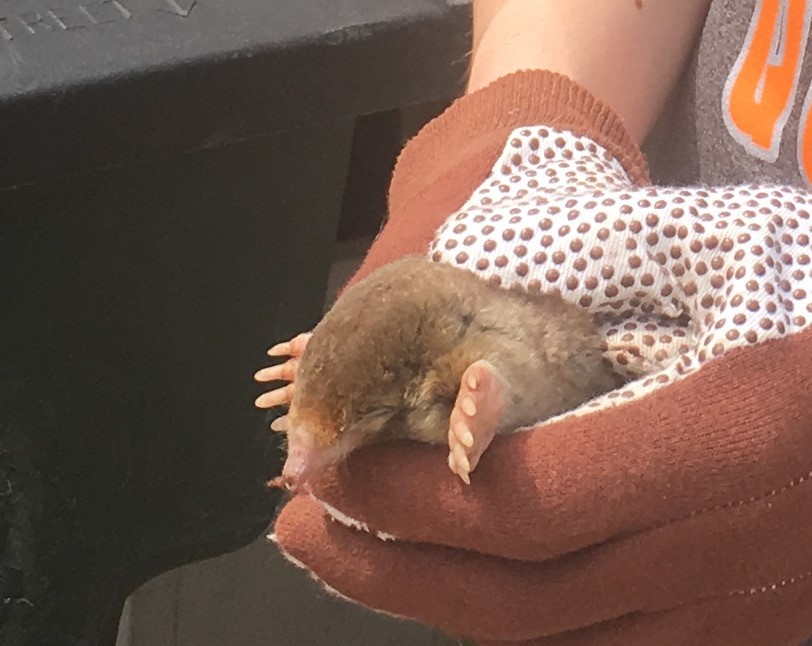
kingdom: Animalia
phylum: Chordata
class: Mammalia
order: Soricomorpha
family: Talpidae
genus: Scalopus
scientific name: Scalopus aquaticus
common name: Eastern mole
